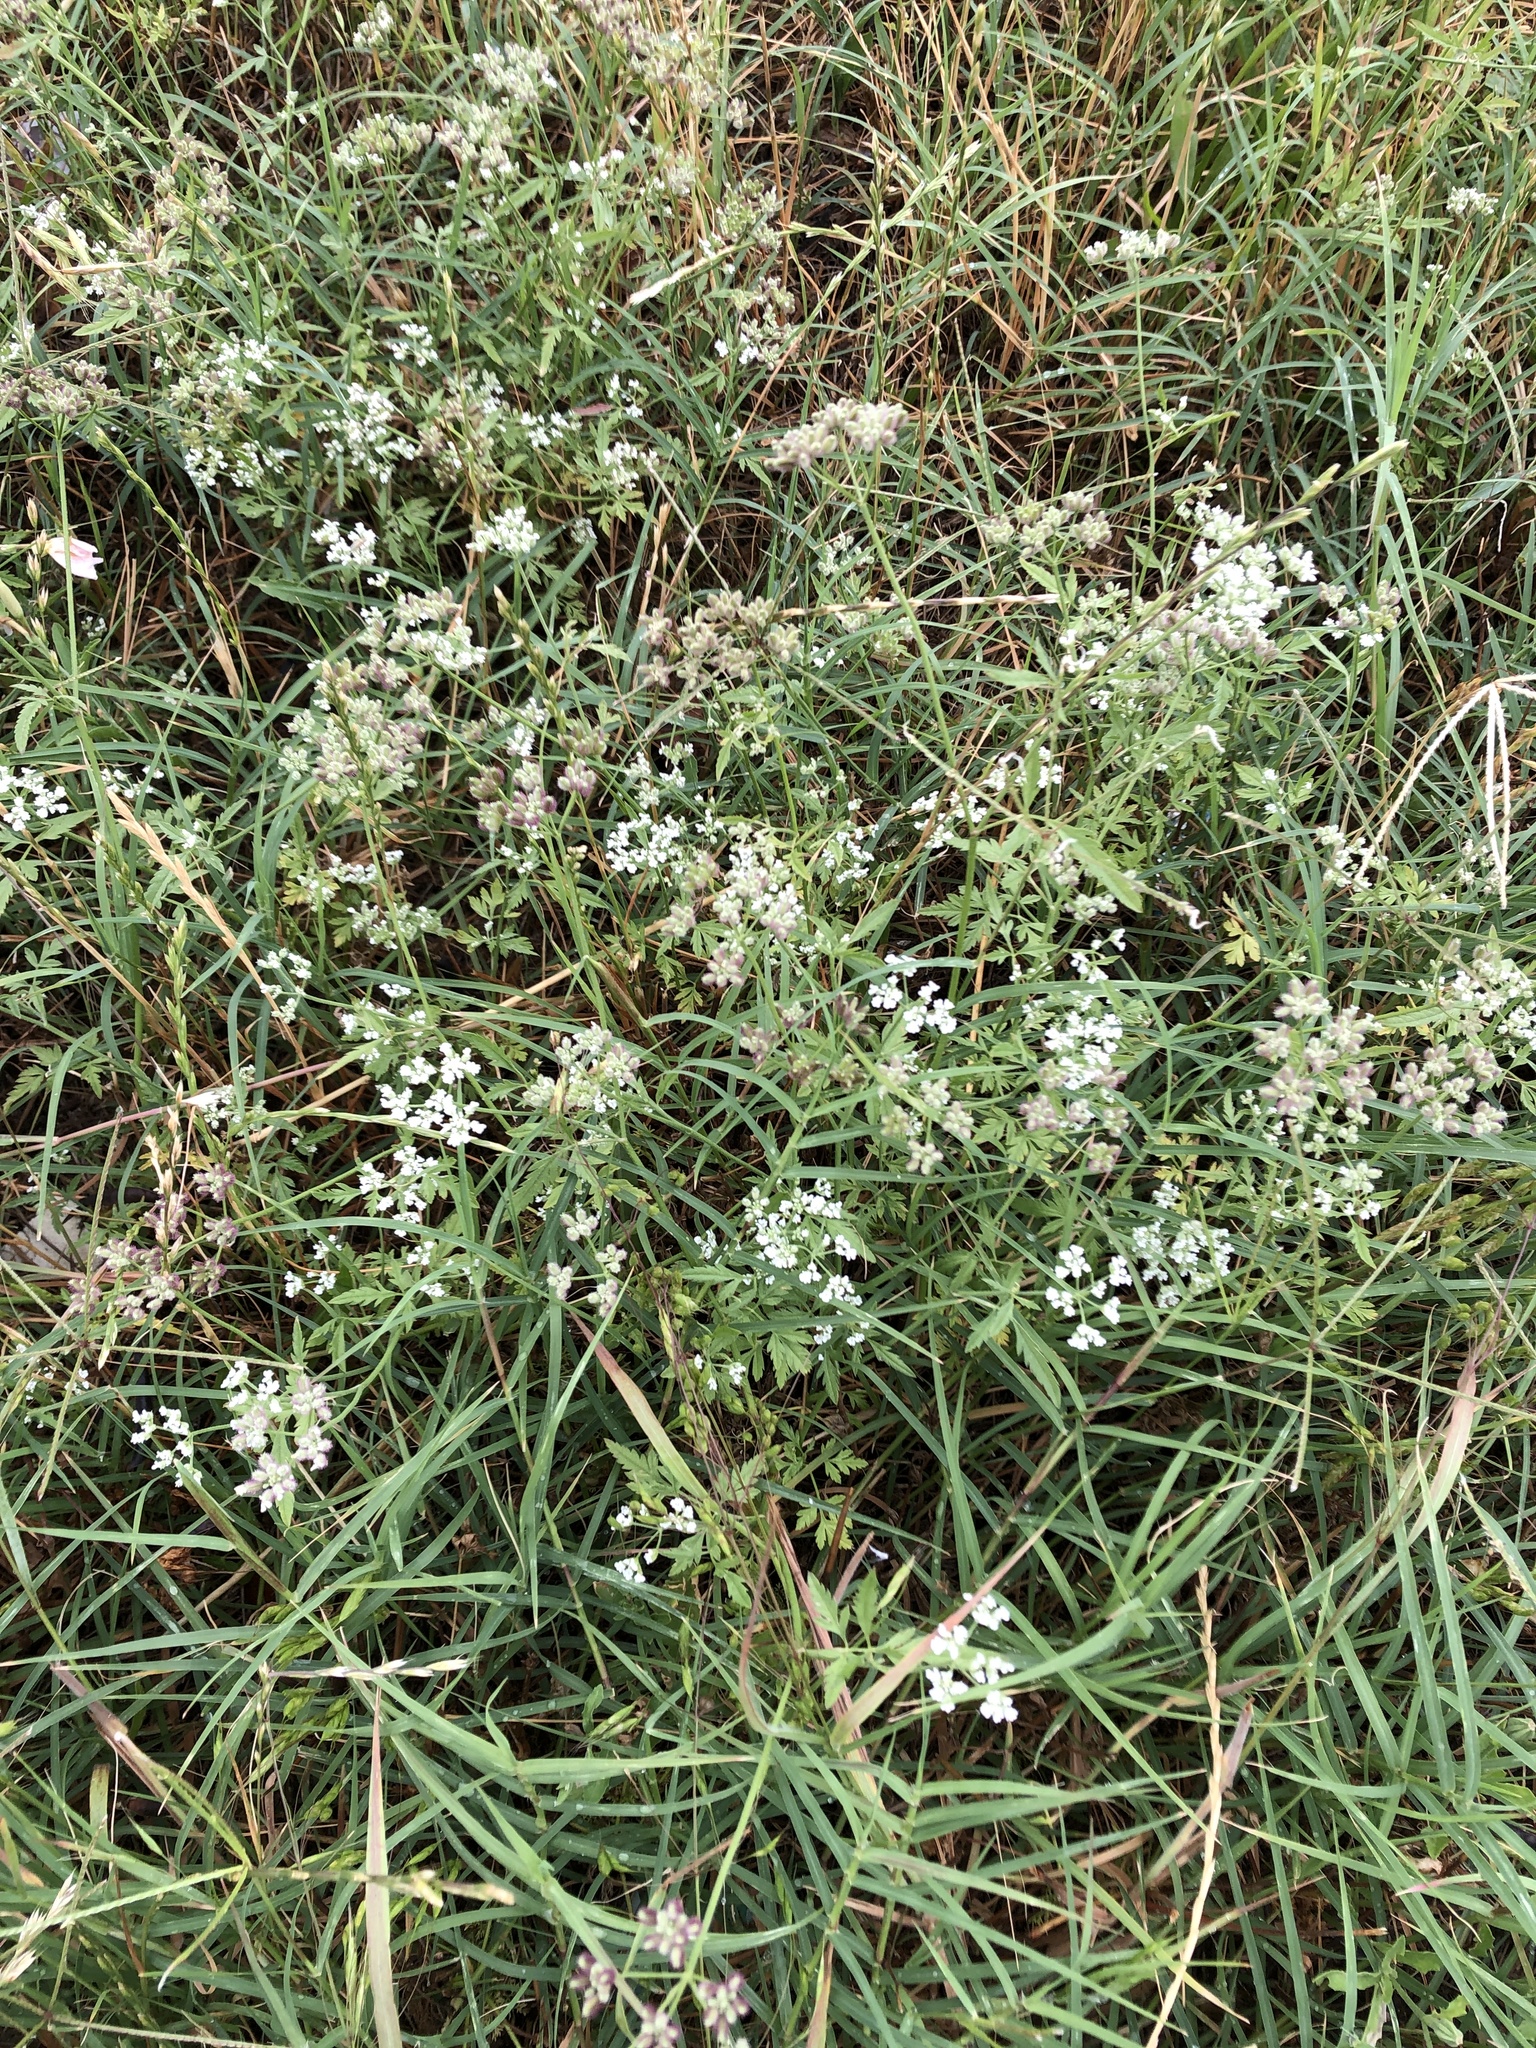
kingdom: Plantae
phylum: Tracheophyta
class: Magnoliopsida
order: Apiales
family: Apiaceae
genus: Torilis
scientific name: Torilis arvensis
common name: Spreading hedge-parsley
